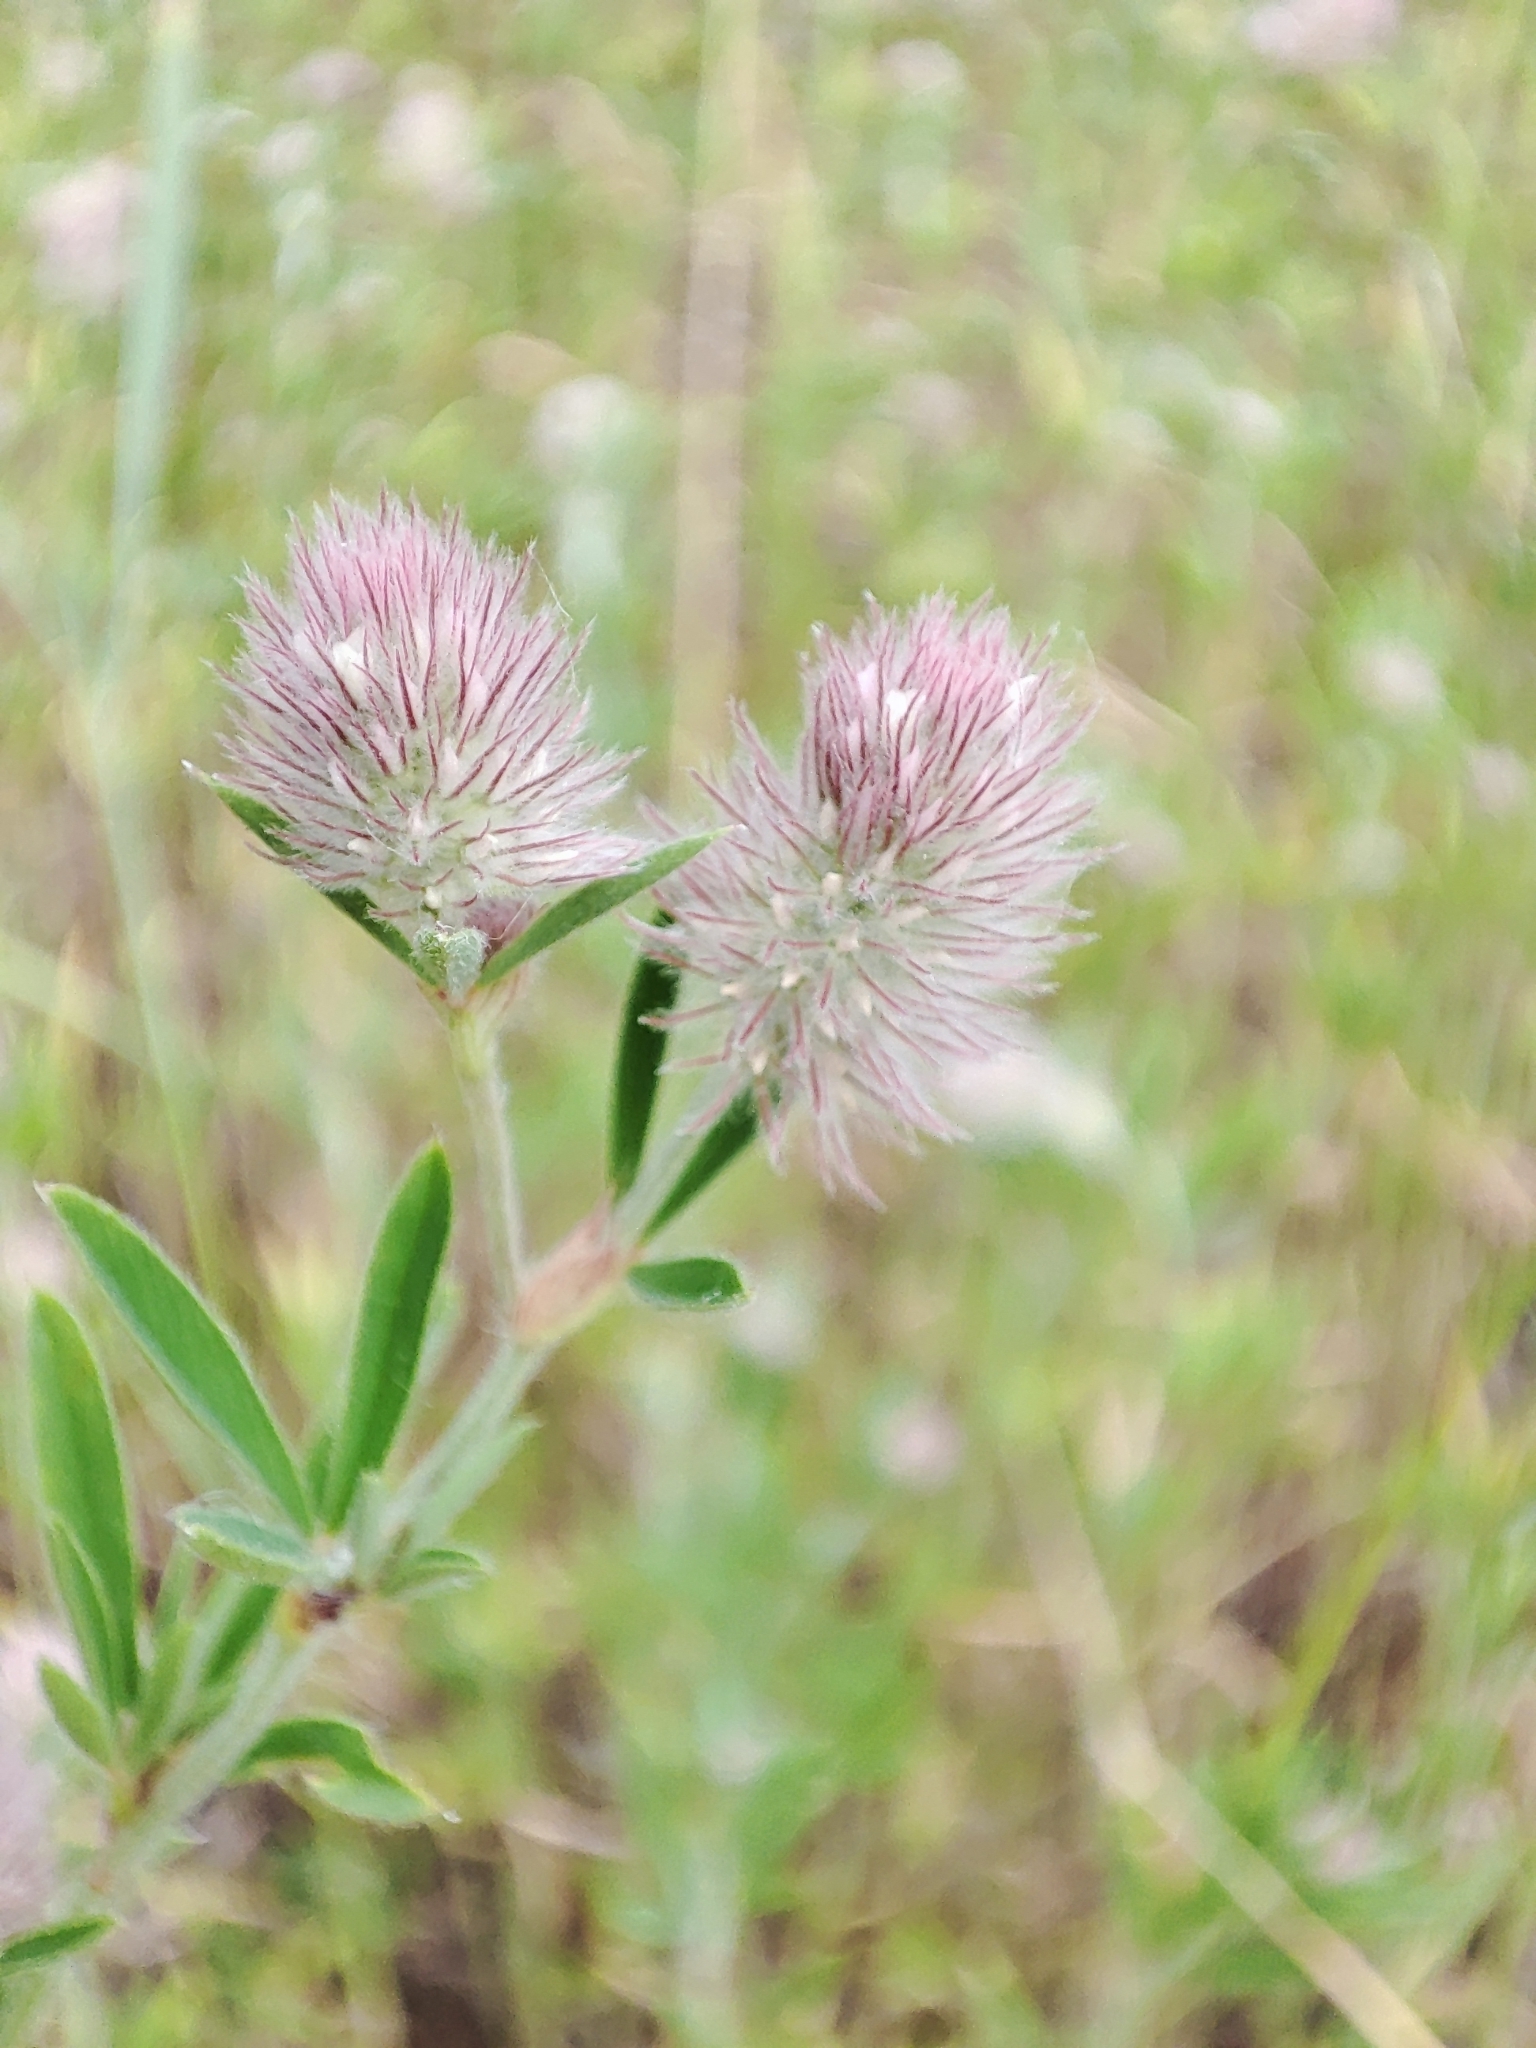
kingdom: Plantae
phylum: Tracheophyta
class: Magnoliopsida
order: Fabales
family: Fabaceae
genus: Trifolium
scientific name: Trifolium arvense
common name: Hare's-foot clover
